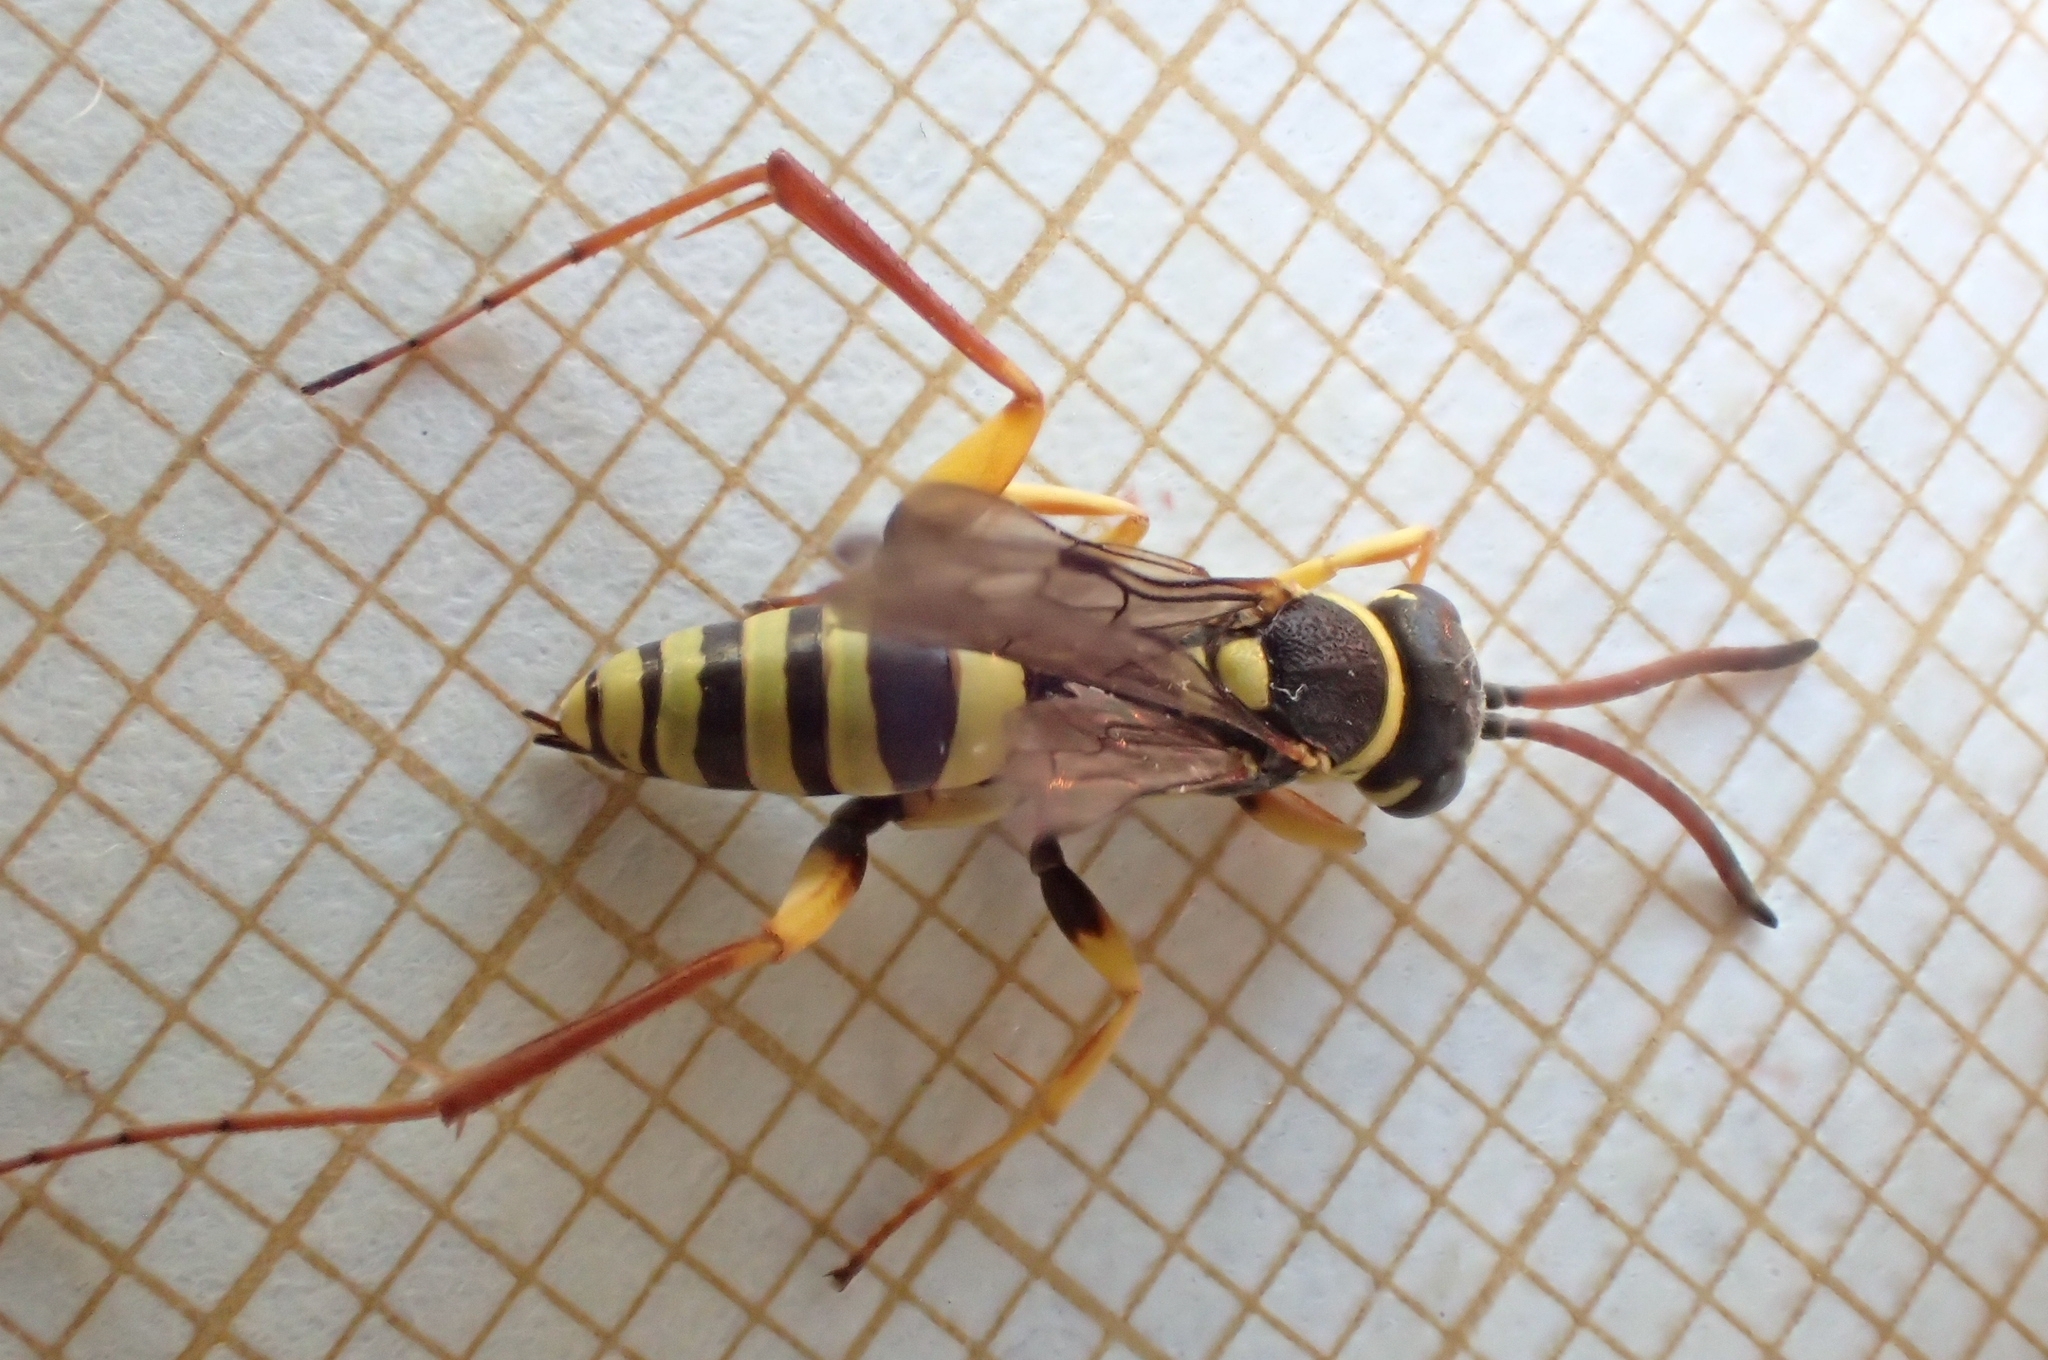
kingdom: Animalia
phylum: Arthropoda
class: Insecta
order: Hymenoptera
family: Pompilidae
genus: Ceropales
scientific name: Ceropales bipartita
